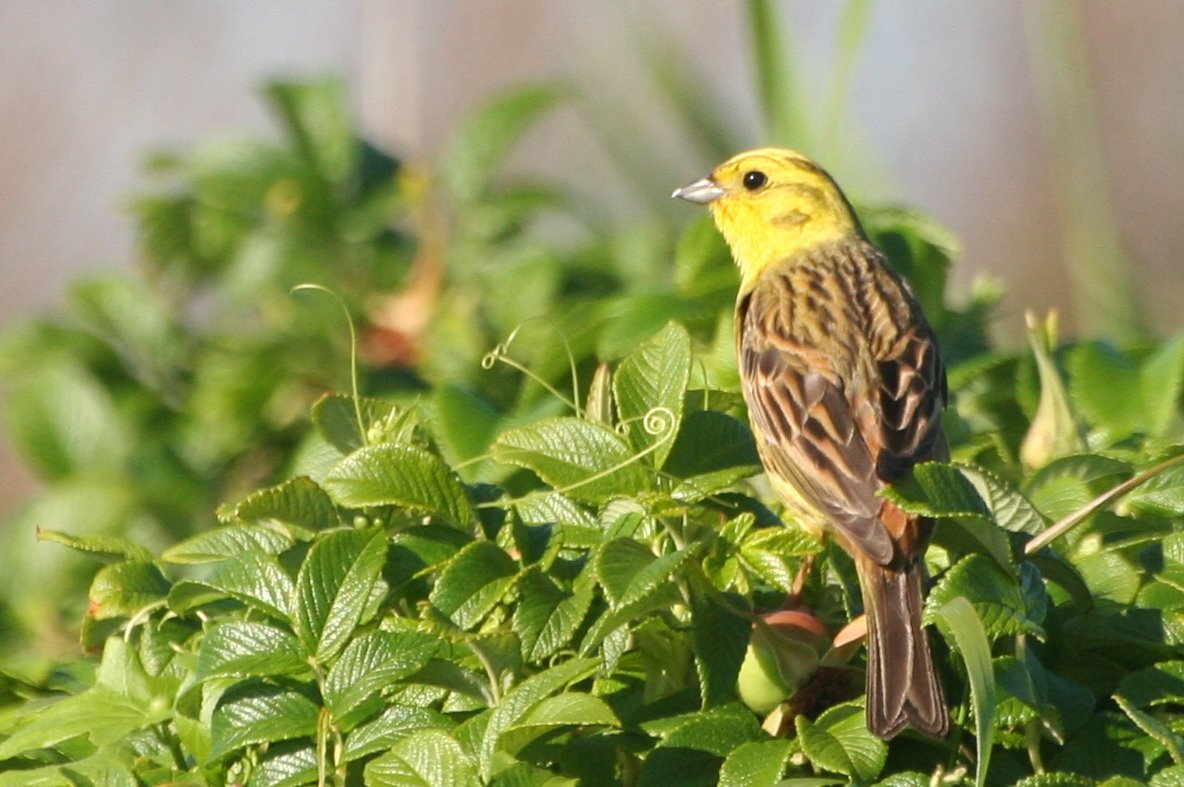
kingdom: Animalia
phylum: Chordata
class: Aves
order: Passeriformes
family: Emberizidae
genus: Emberiza
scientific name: Emberiza citrinella
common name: Yellowhammer
